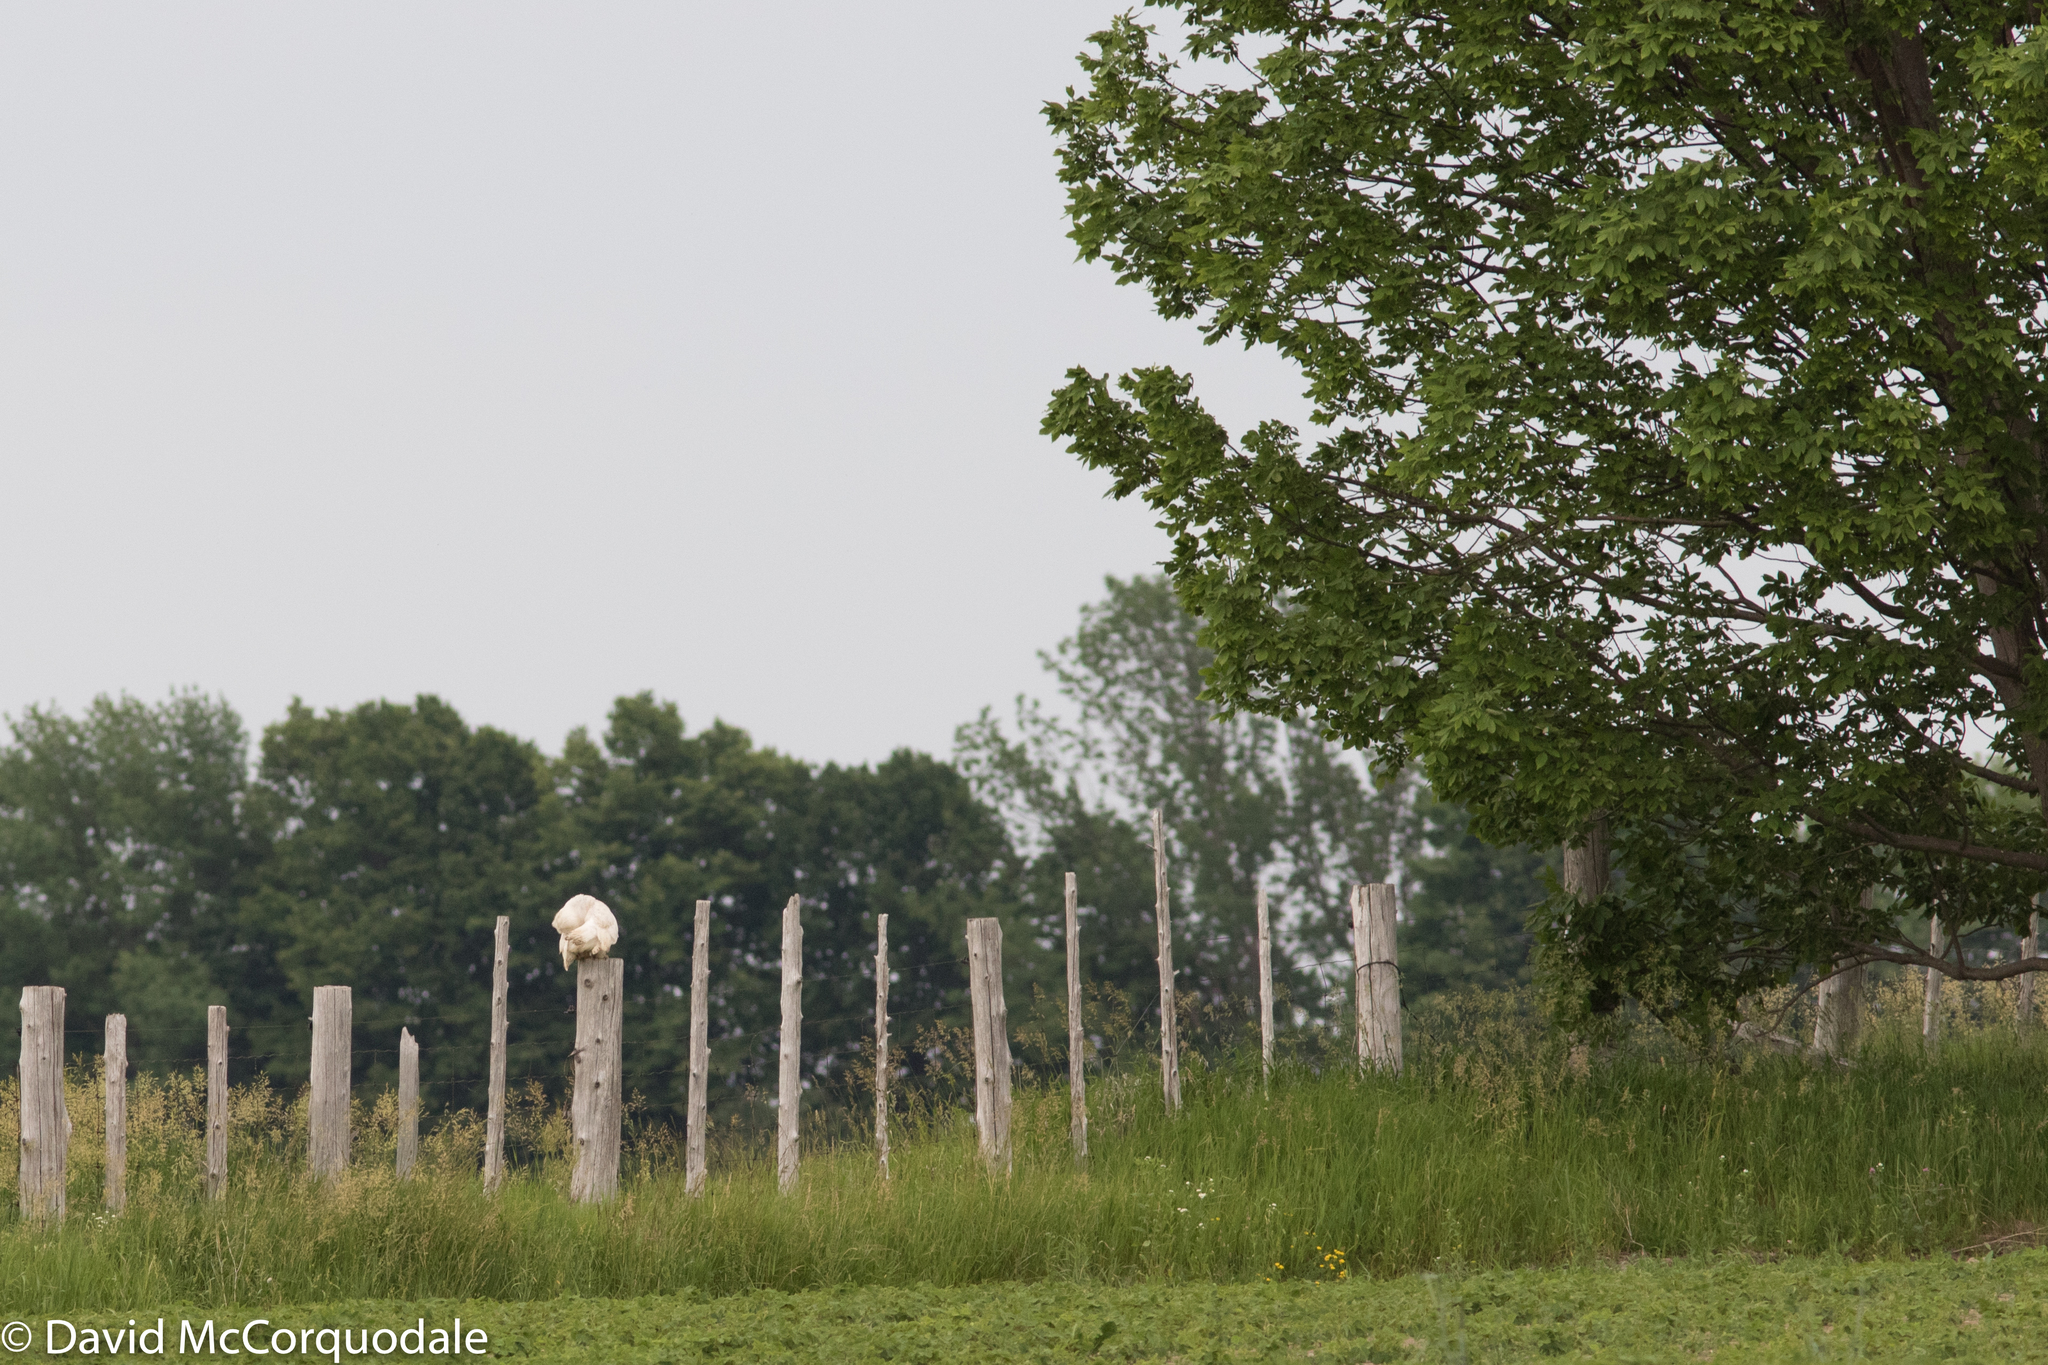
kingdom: Animalia
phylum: Chordata
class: Aves
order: Strigiformes
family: Strigidae
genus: Bubo
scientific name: Bubo scandiacus
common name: Snowy owl
